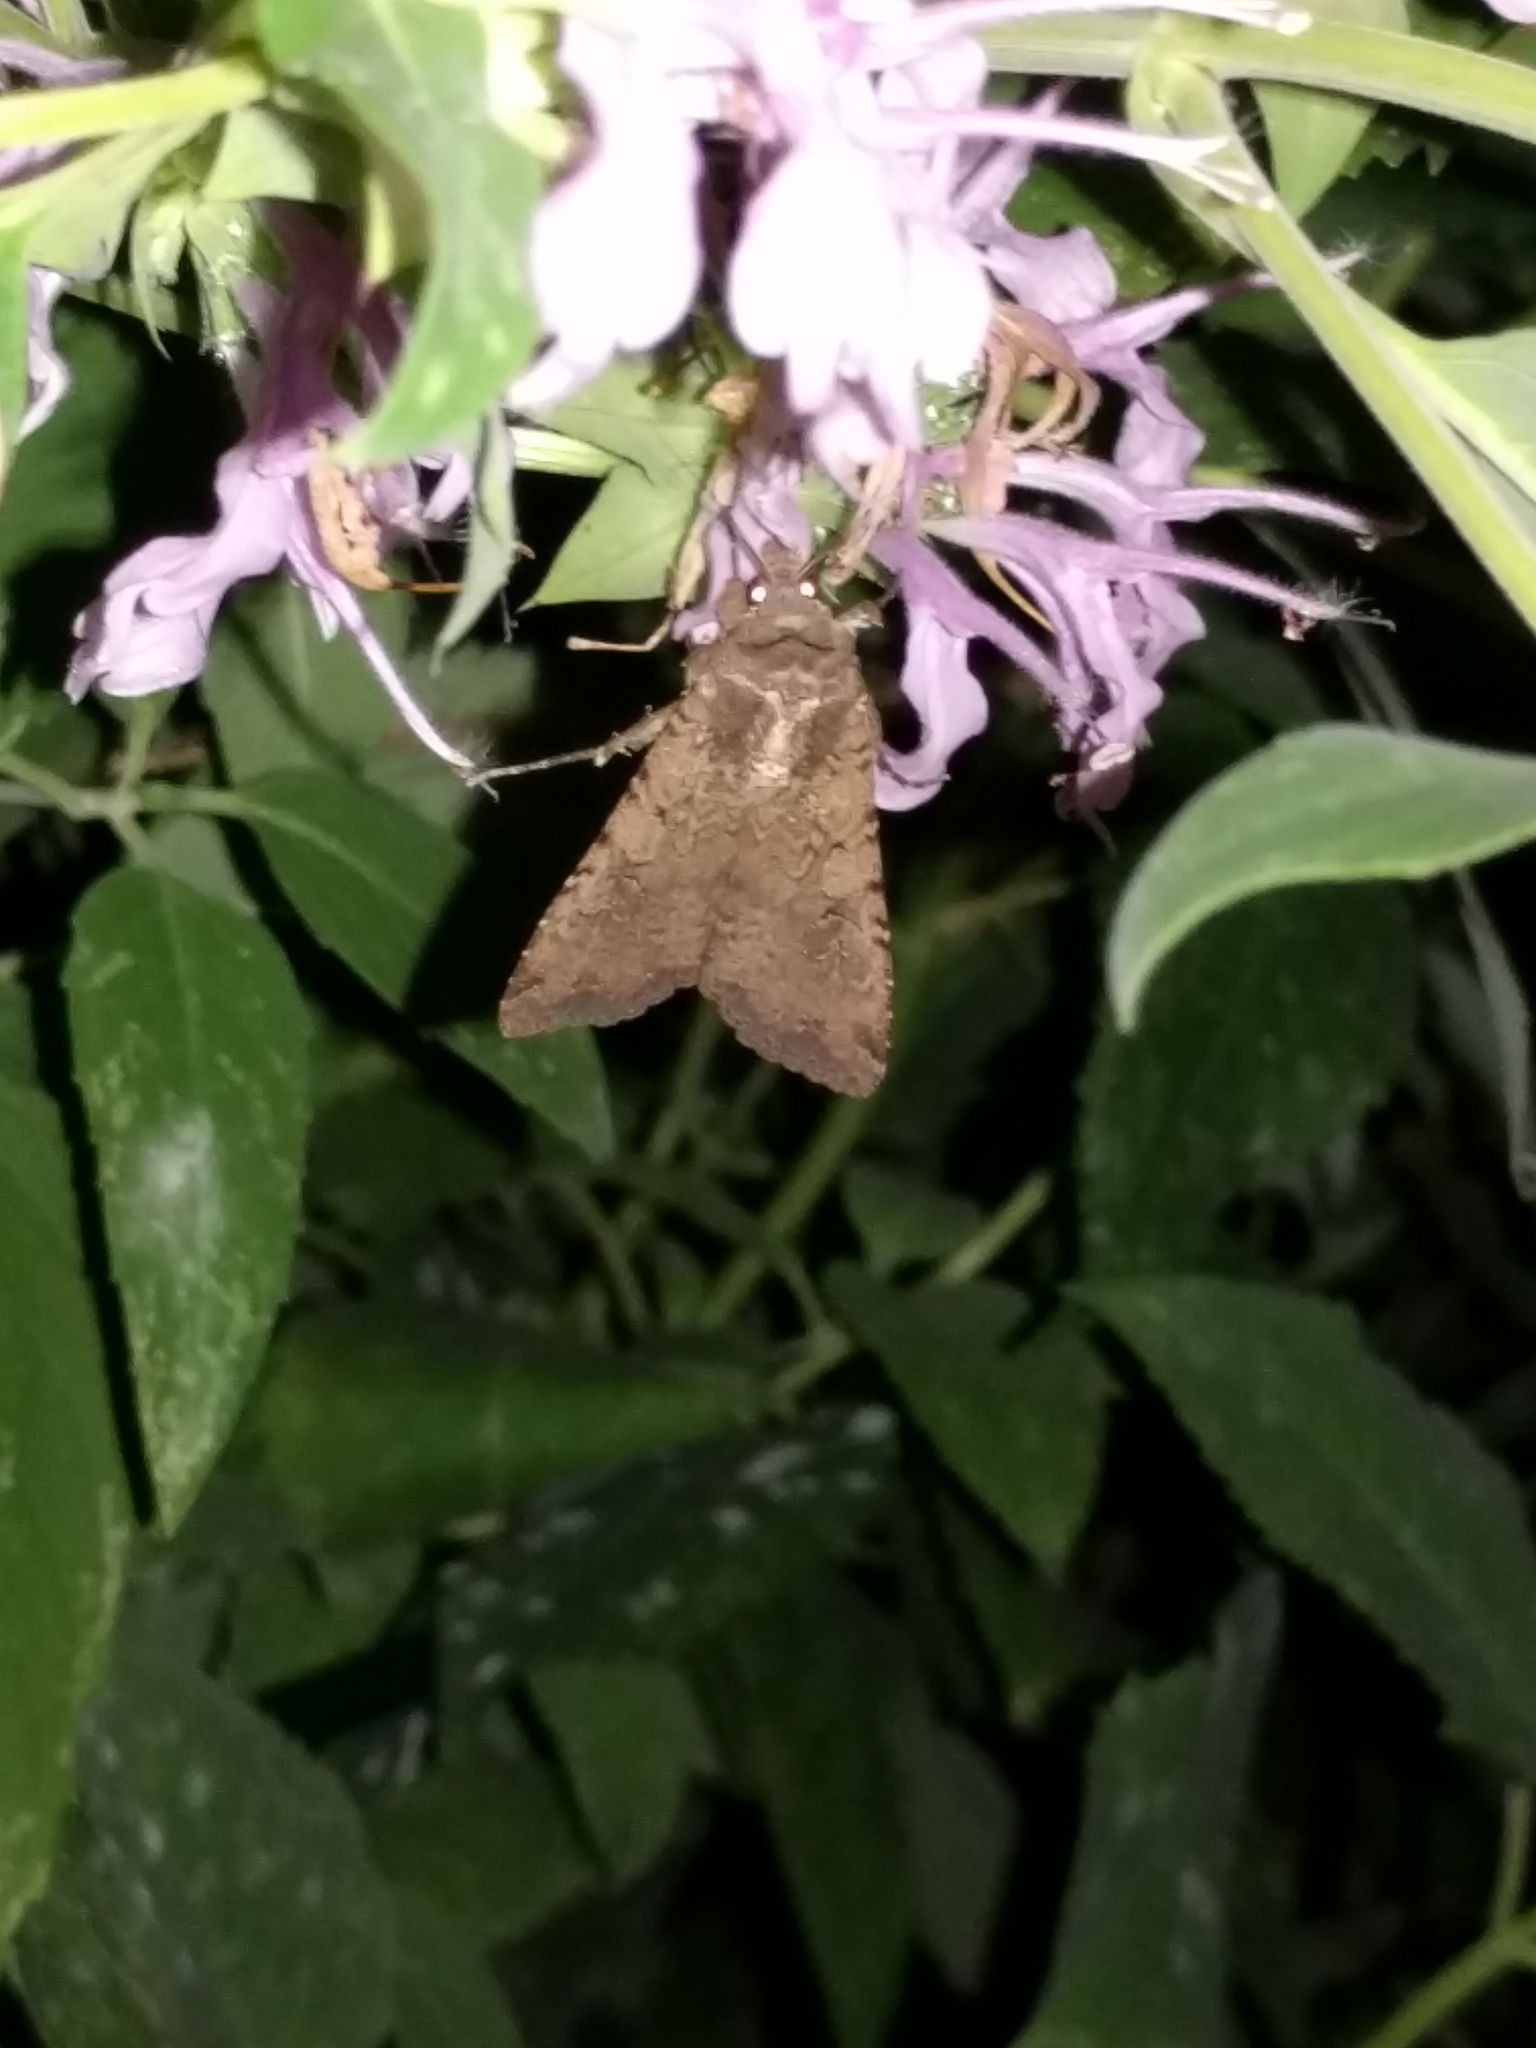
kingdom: Animalia
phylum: Arthropoda
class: Insecta
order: Lepidoptera
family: Noctuidae
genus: Peridroma
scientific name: Peridroma saucia
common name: Pearly underwing
